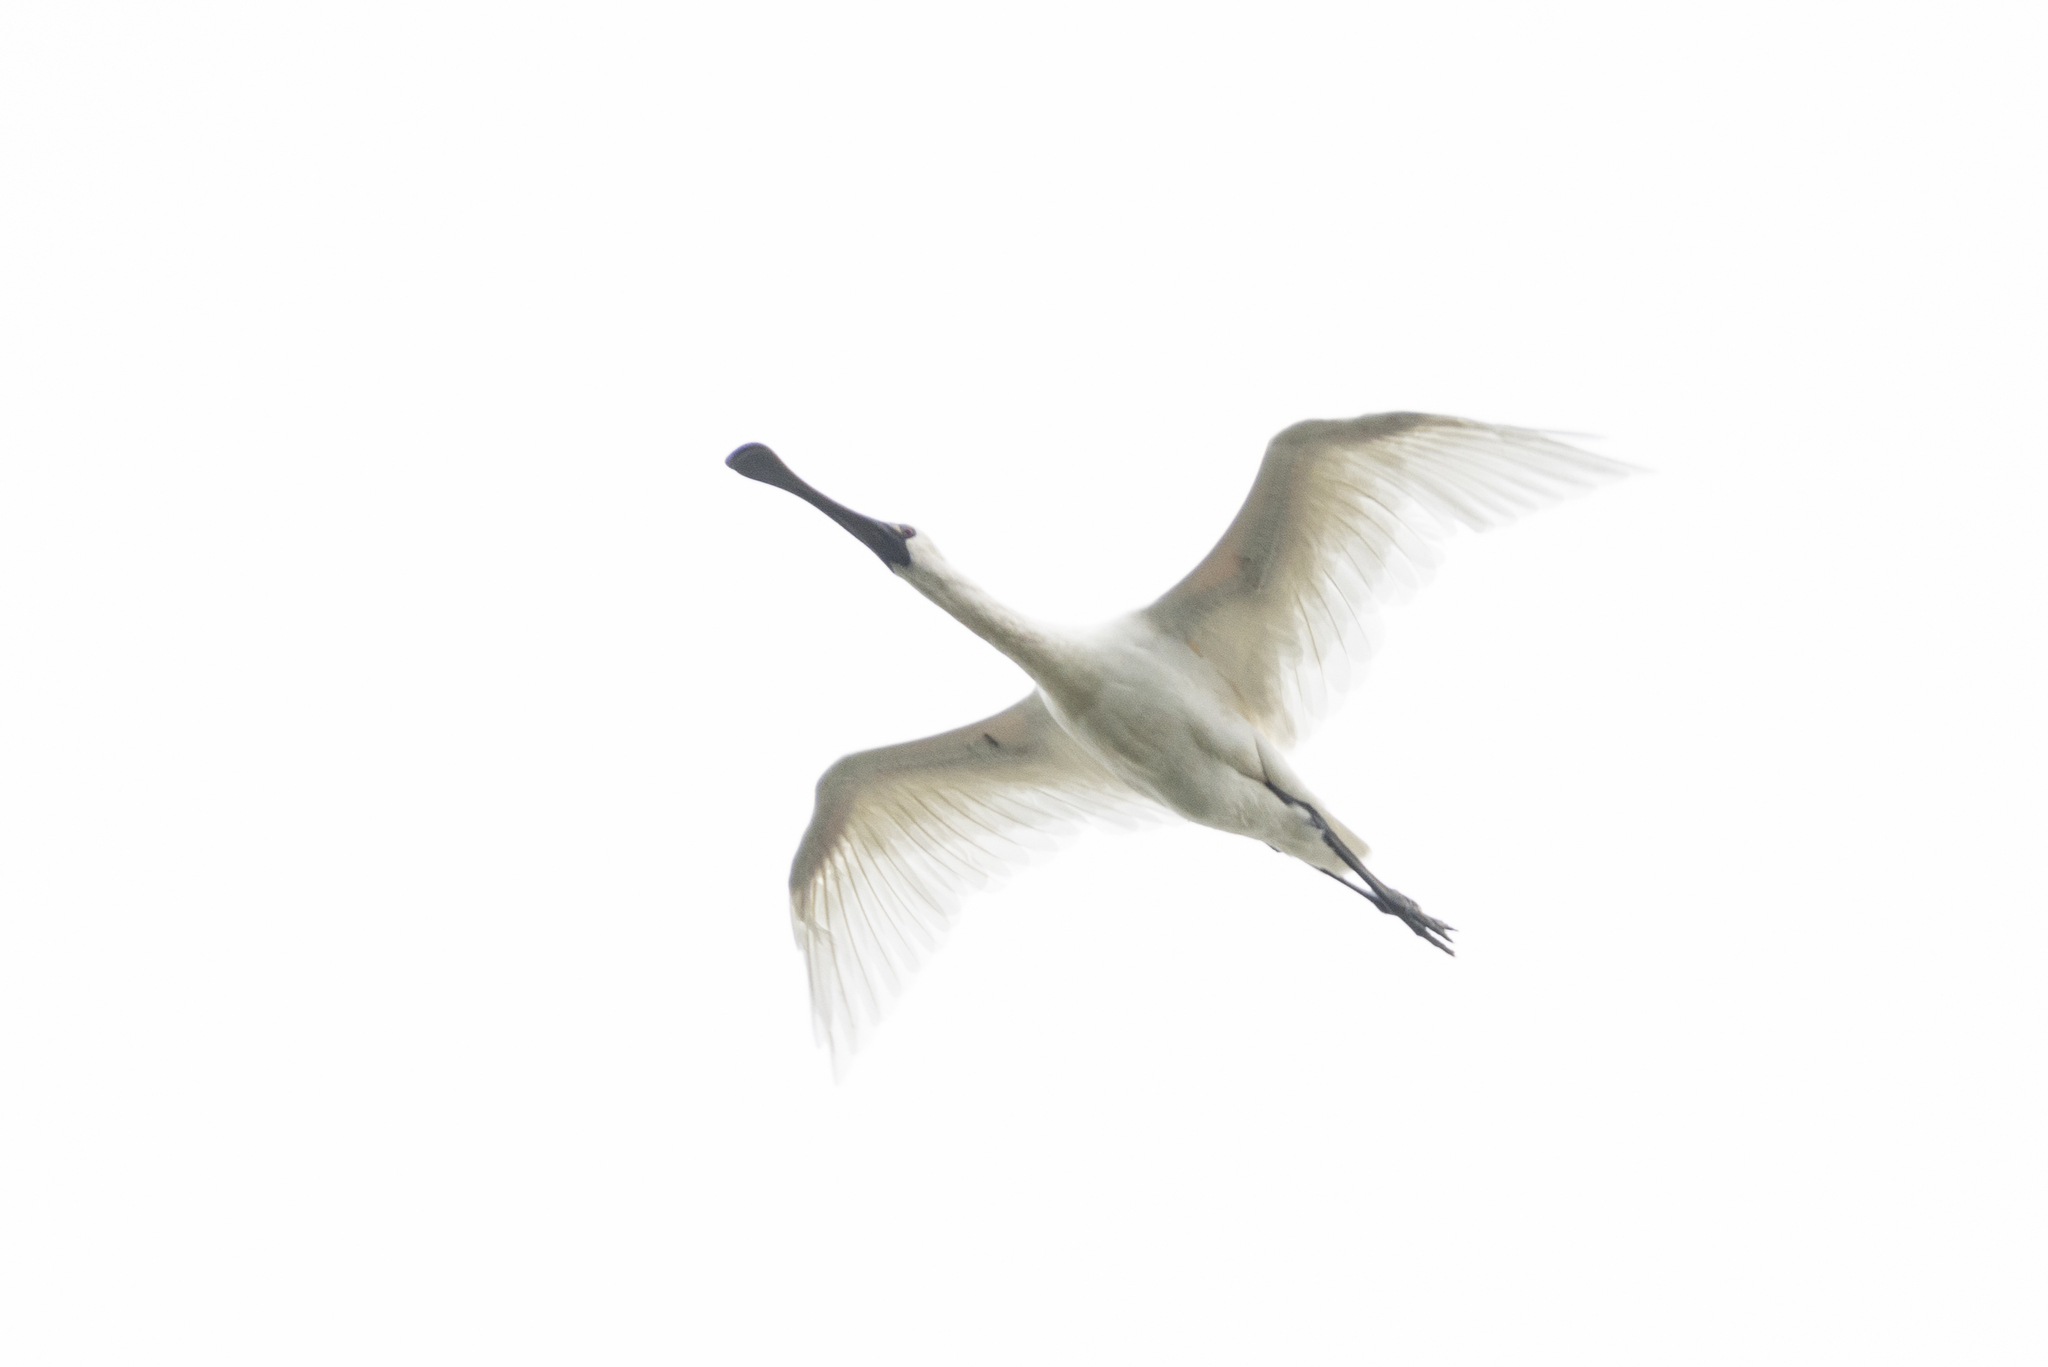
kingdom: Animalia
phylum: Chordata
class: Aves
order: Pelecaniformes
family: Threskiornithidae
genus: Platalea
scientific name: Platalea minor
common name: Black-faced spoonbill
